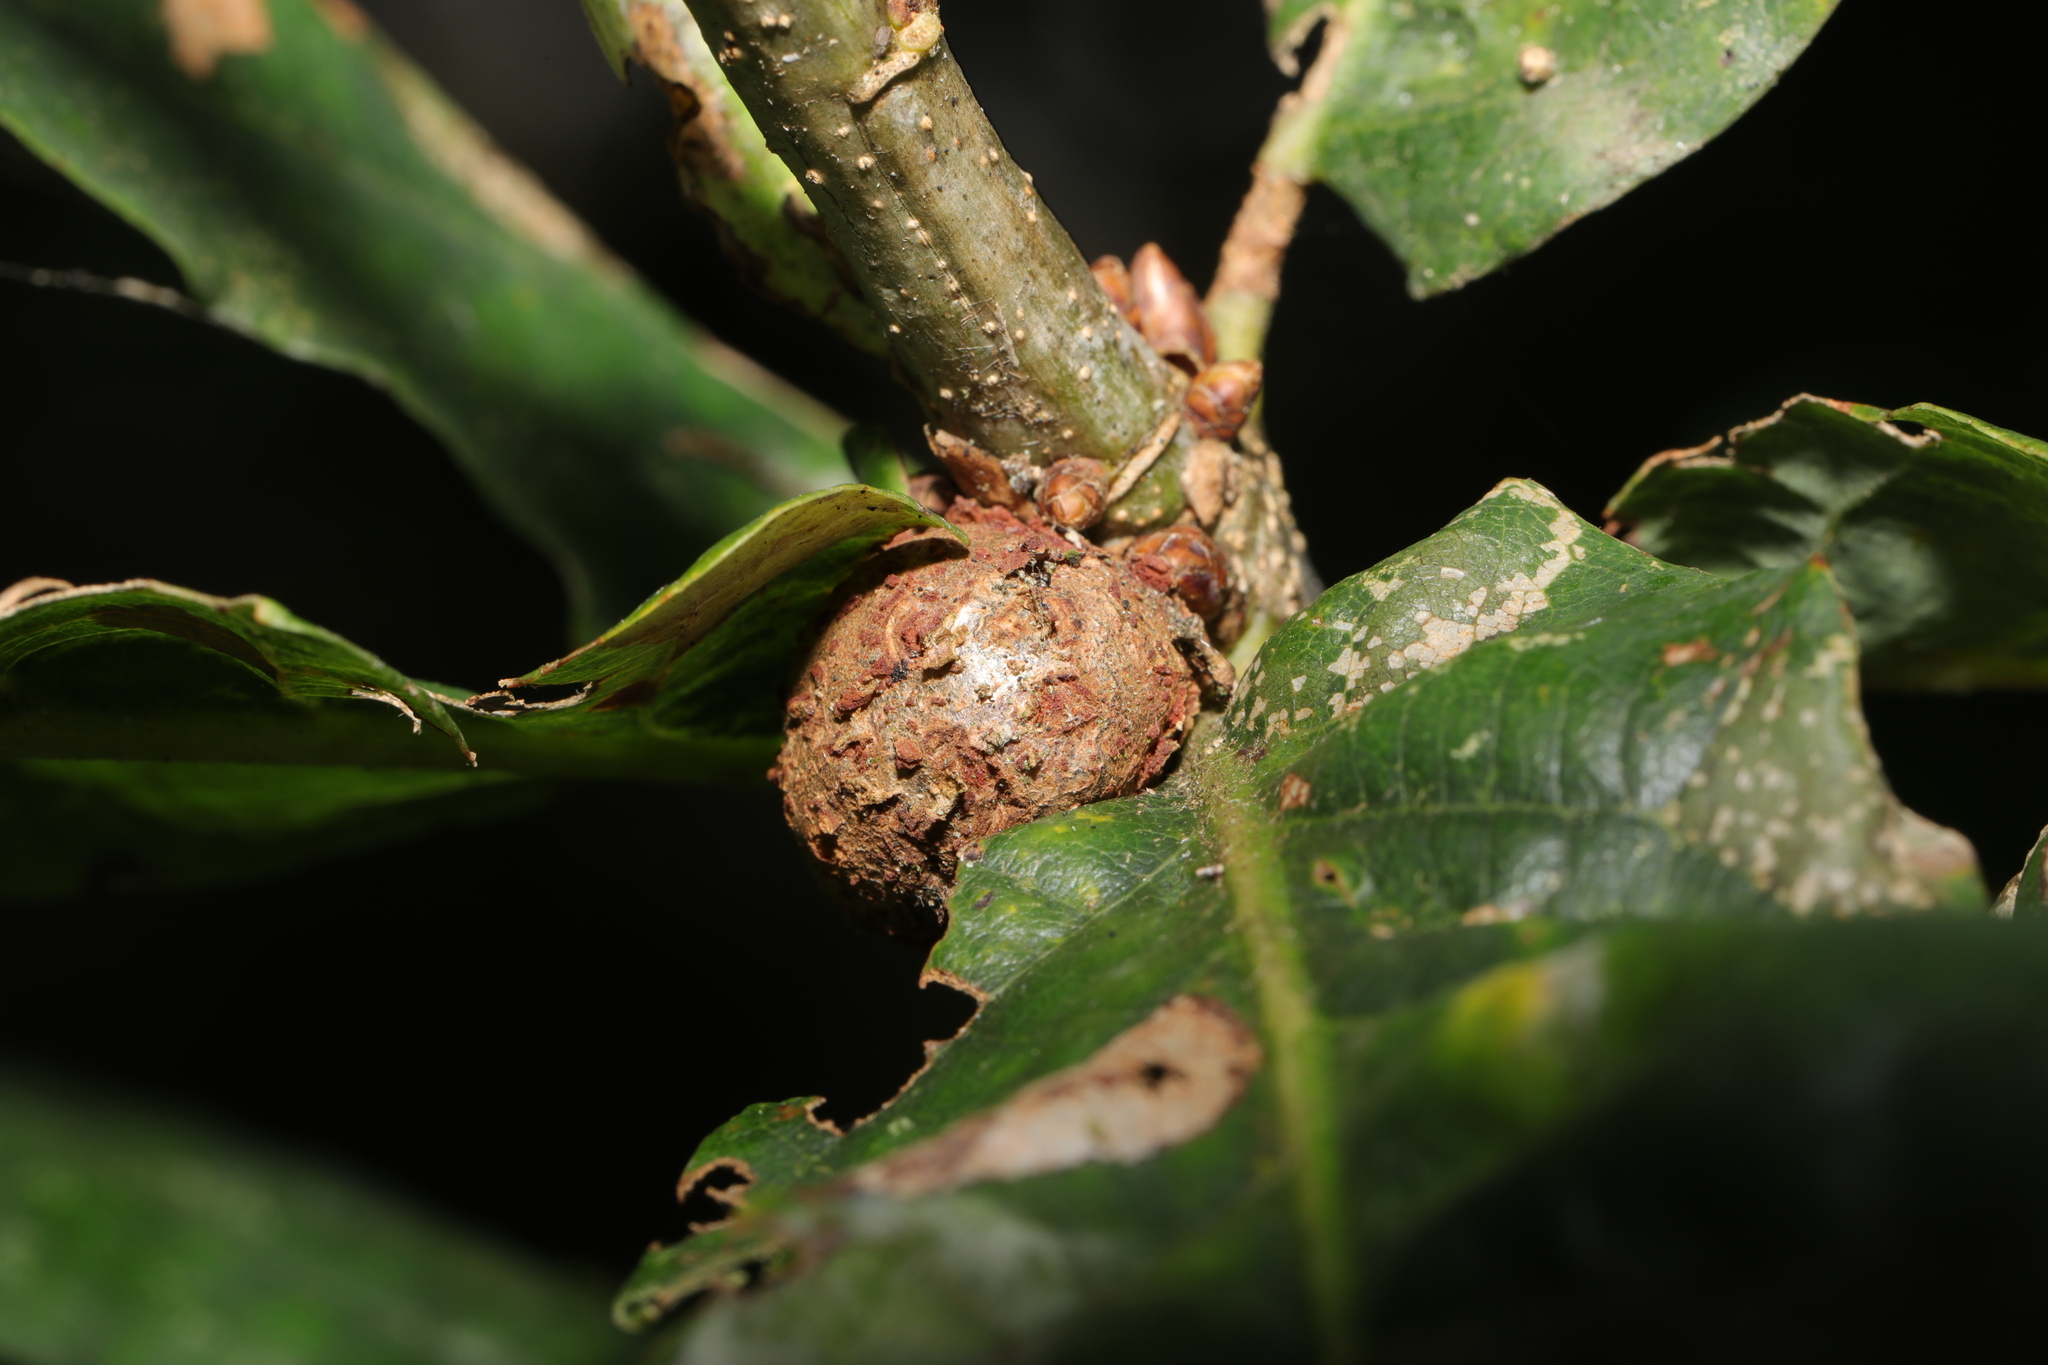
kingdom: Animalia
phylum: Arthropoda
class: Insecta
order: Hymenoptera
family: Cynipidae
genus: Andricus
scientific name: Andricus lignicolus
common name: Cola-nut gall
